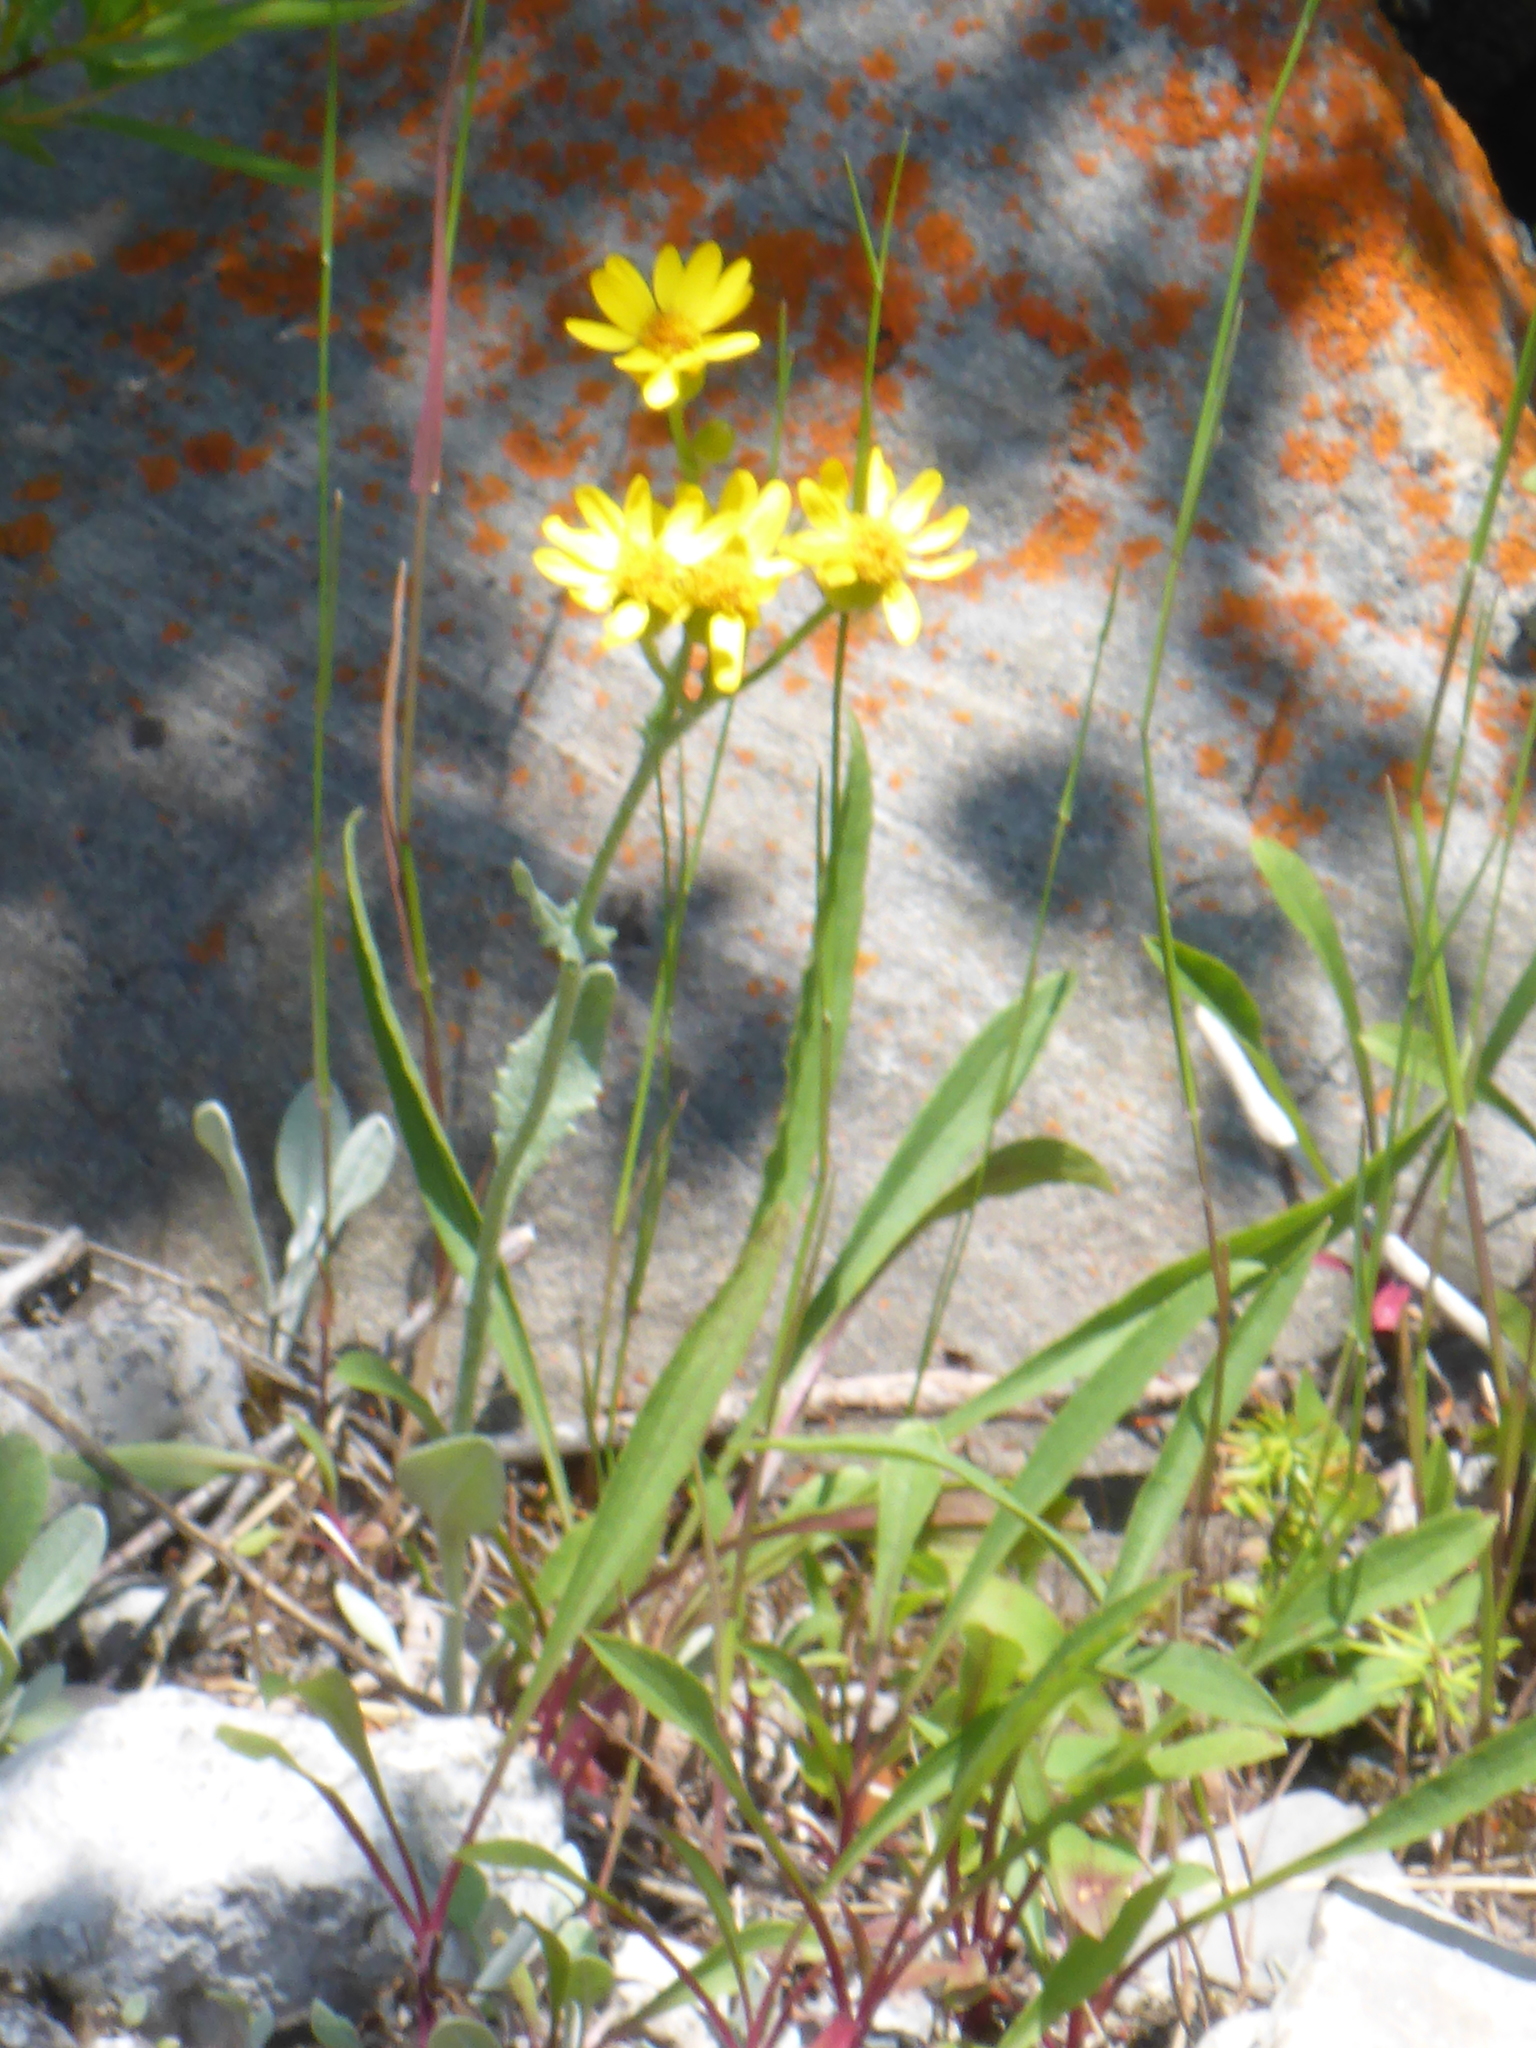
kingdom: Plantae
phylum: Tracheophyta
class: Magnoliopsida
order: Asterales
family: Asteraceae
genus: Packera
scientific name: Packera paupercula
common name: Balsam groundsel
